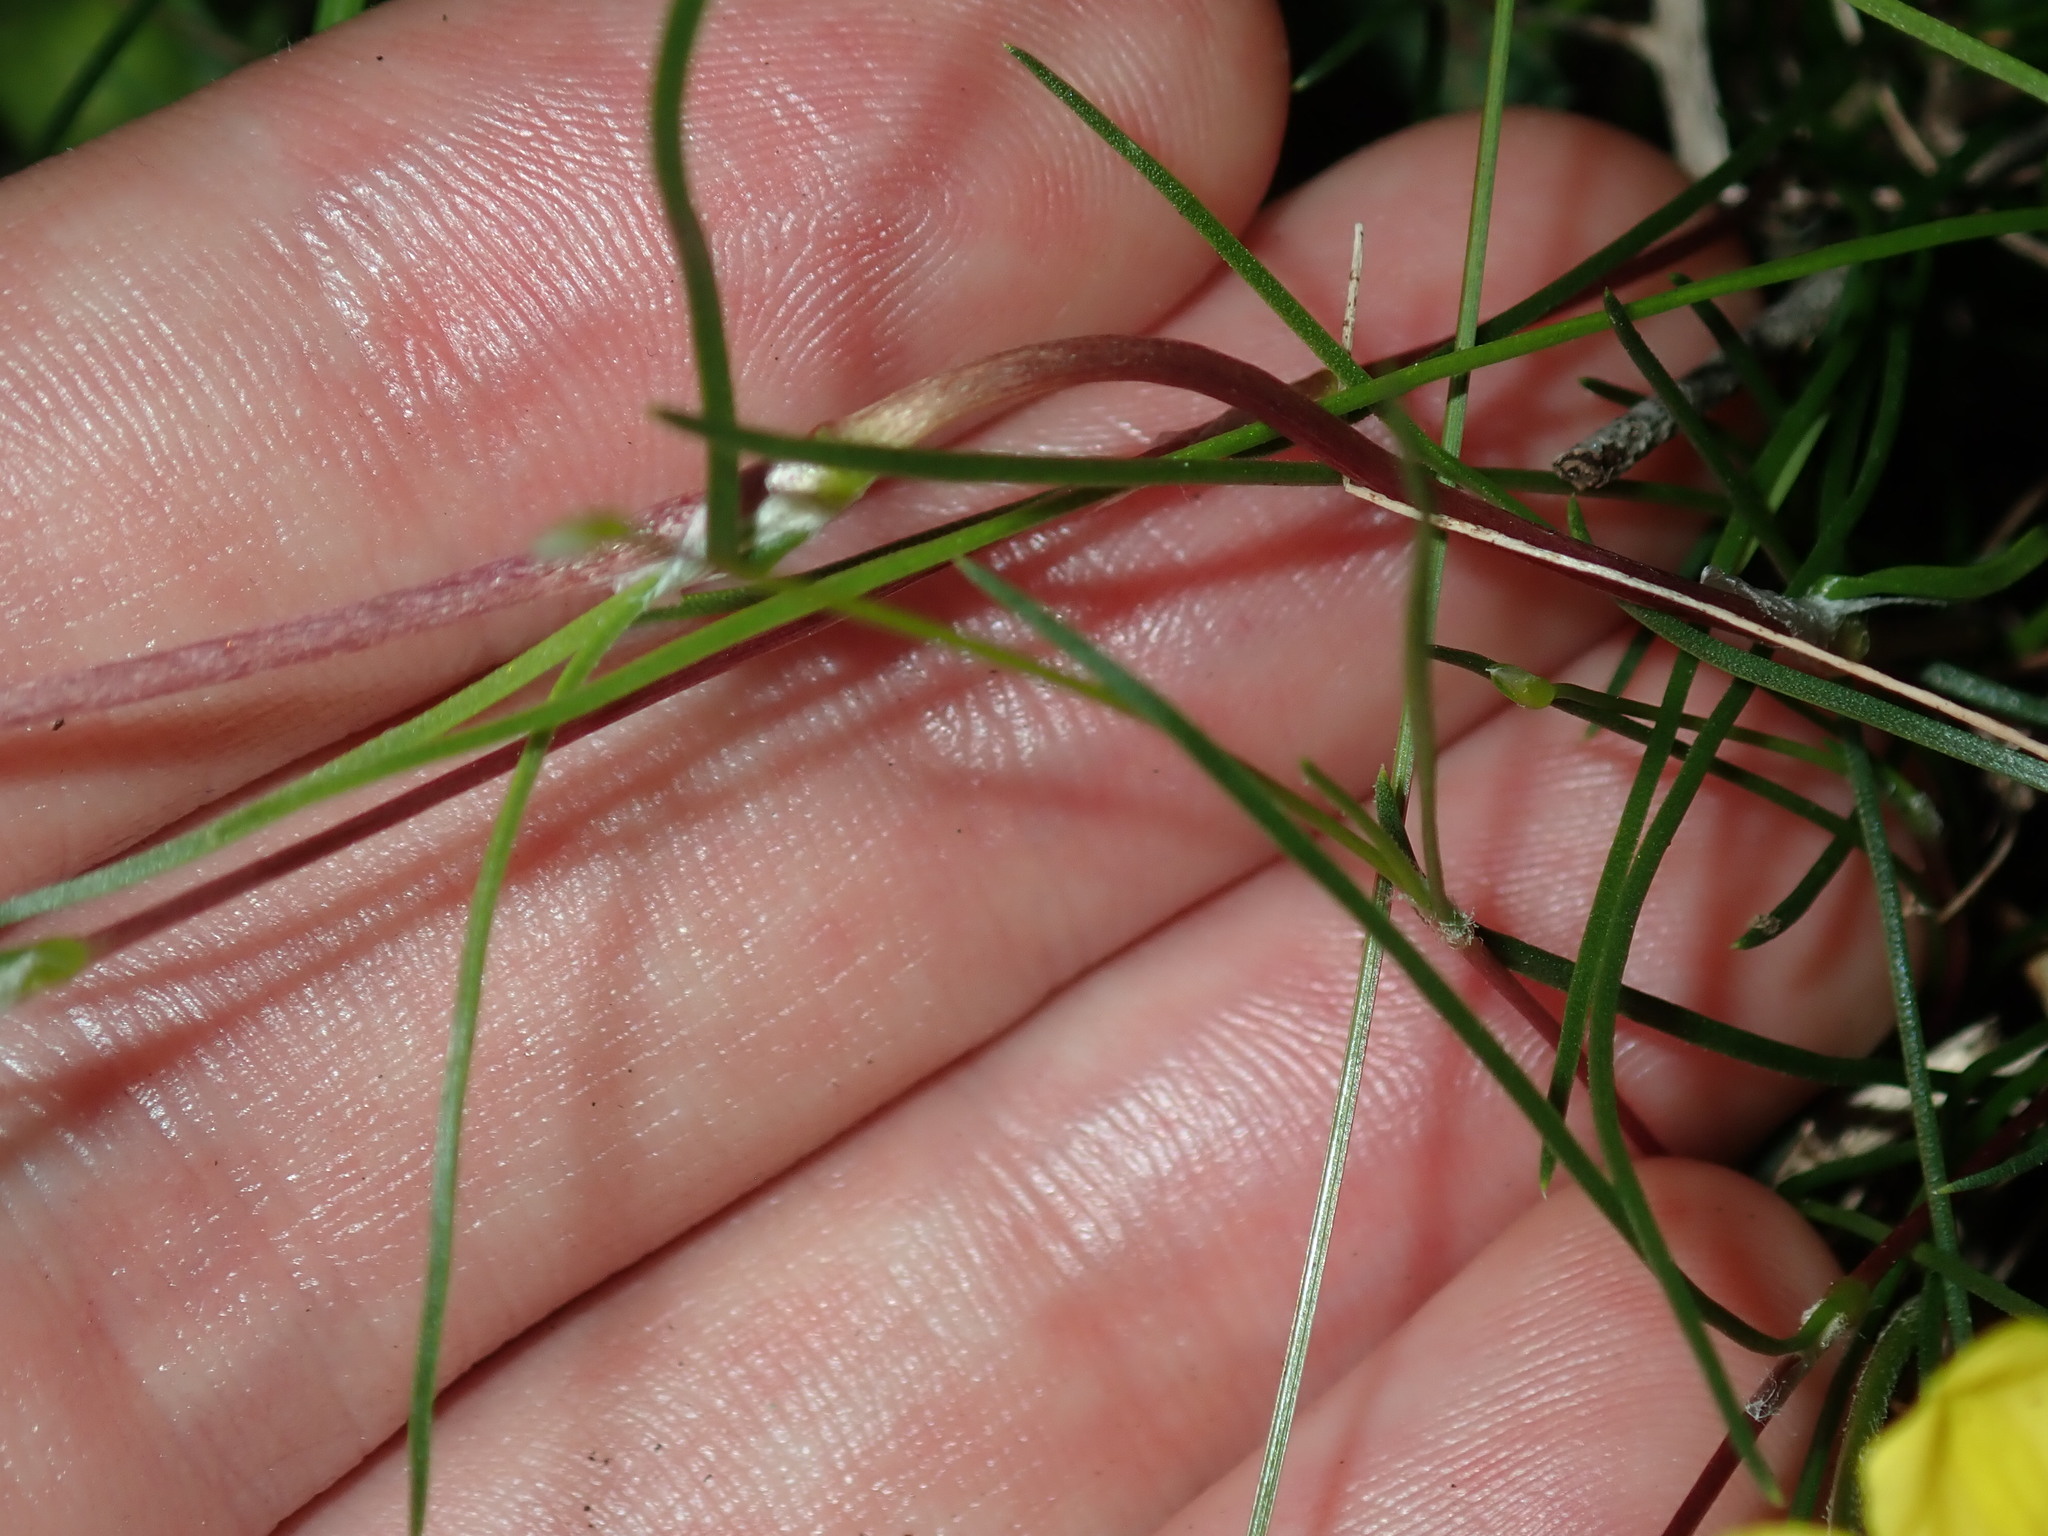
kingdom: Plantae
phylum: Tracheophyta
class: Liliopsida
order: Asparagales
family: Asparagaceae
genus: Laxmannia
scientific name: Laxmannia gracilis
